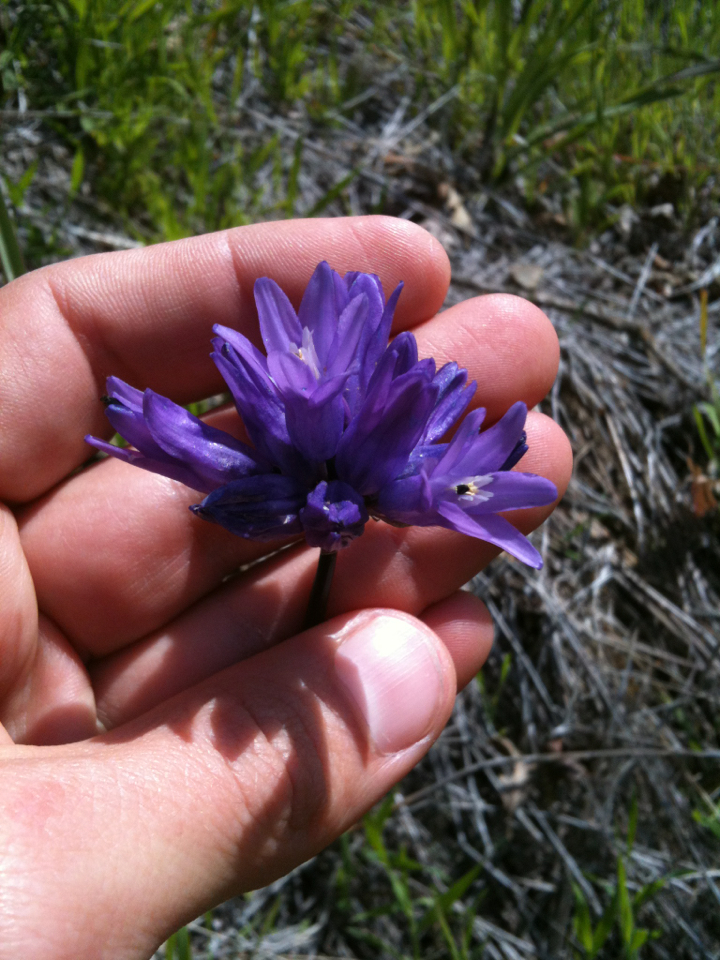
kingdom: Plantae
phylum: Tracheophyta
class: Liliopsida
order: Asparagales
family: Asparagaceae
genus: Dipterostemon
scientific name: Dipterostemon capitatus
